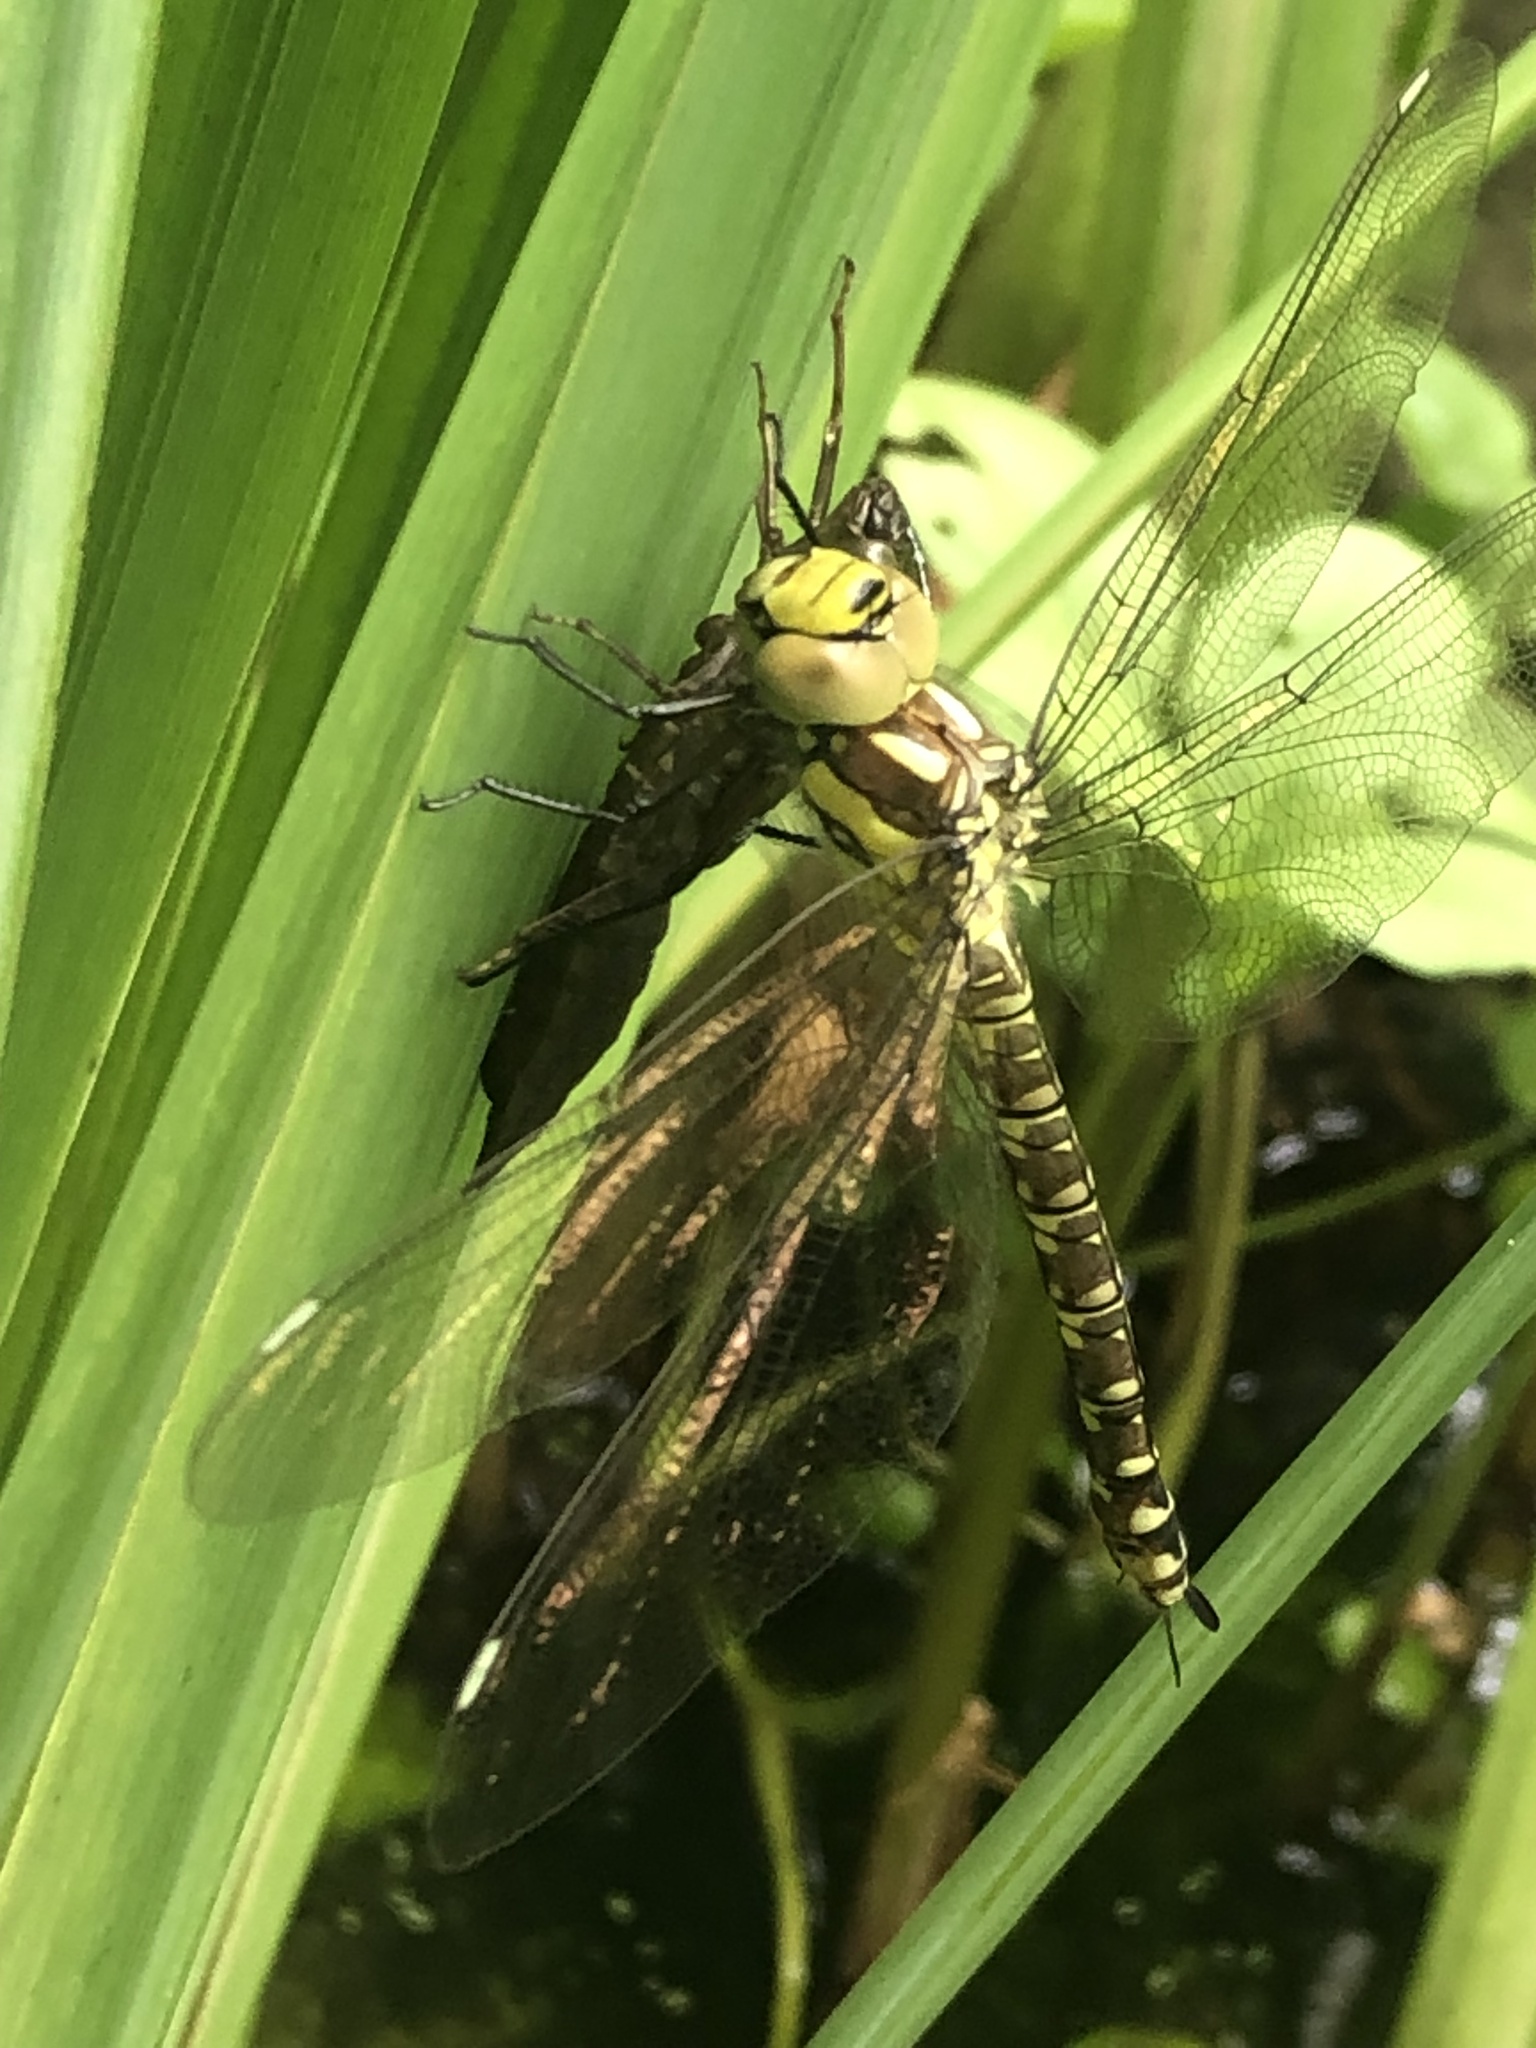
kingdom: Animalia
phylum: Arthropoda
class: Insecta
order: Odonata
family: Aeshnidae
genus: Aeshna
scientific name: Aeshna cyanea
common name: Southern hawker
